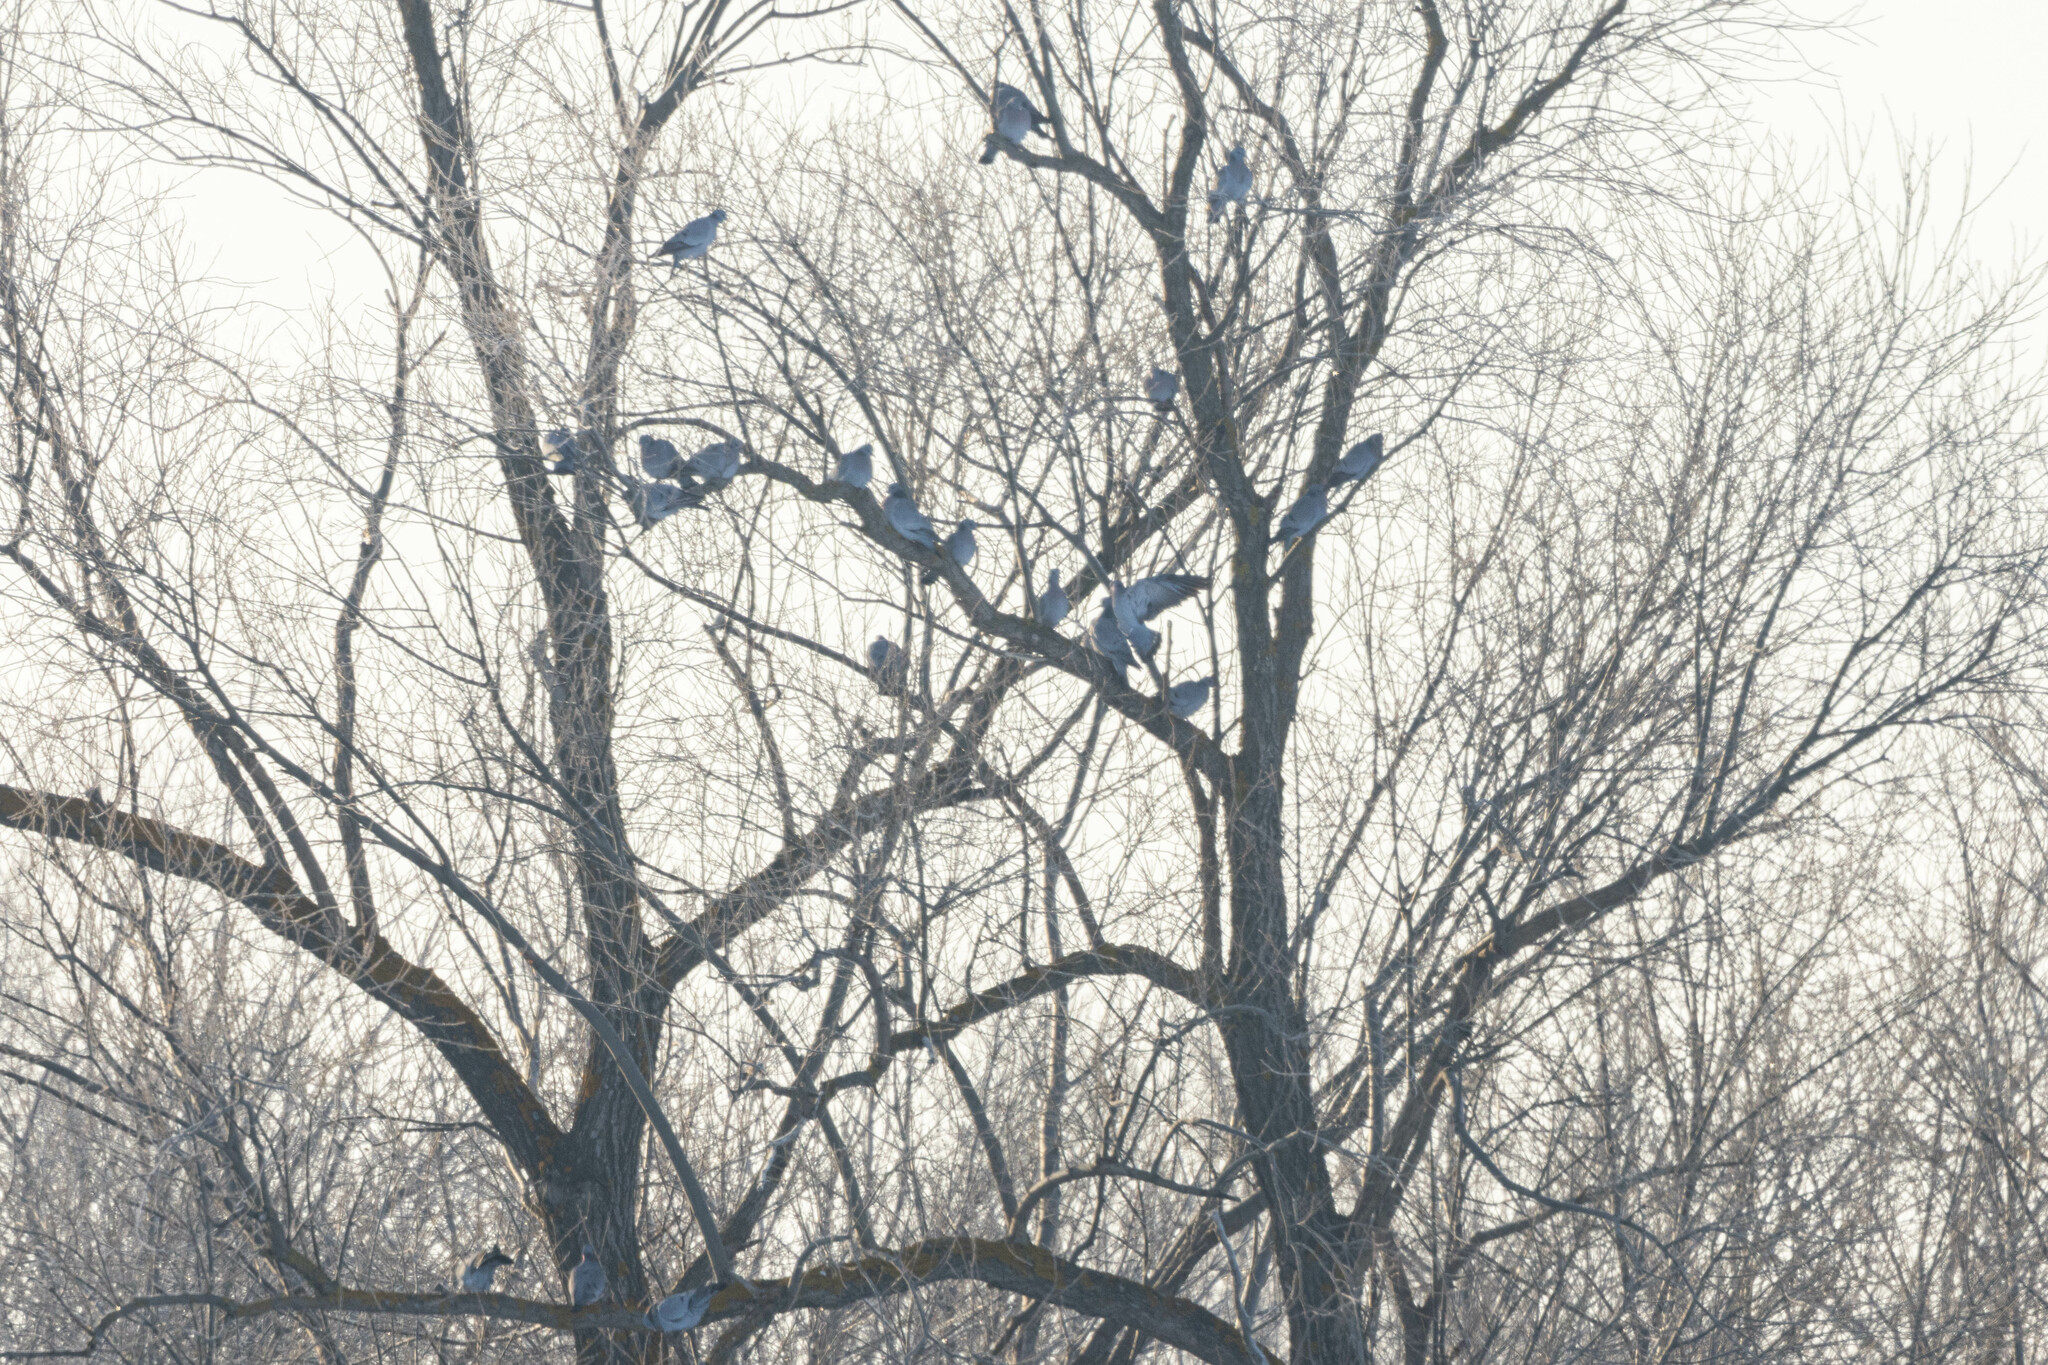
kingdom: Animalia
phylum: Chordata
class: Aves
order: Columbiformes
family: Columbidae
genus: Columba
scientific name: Columba oenas
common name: Stock dove
